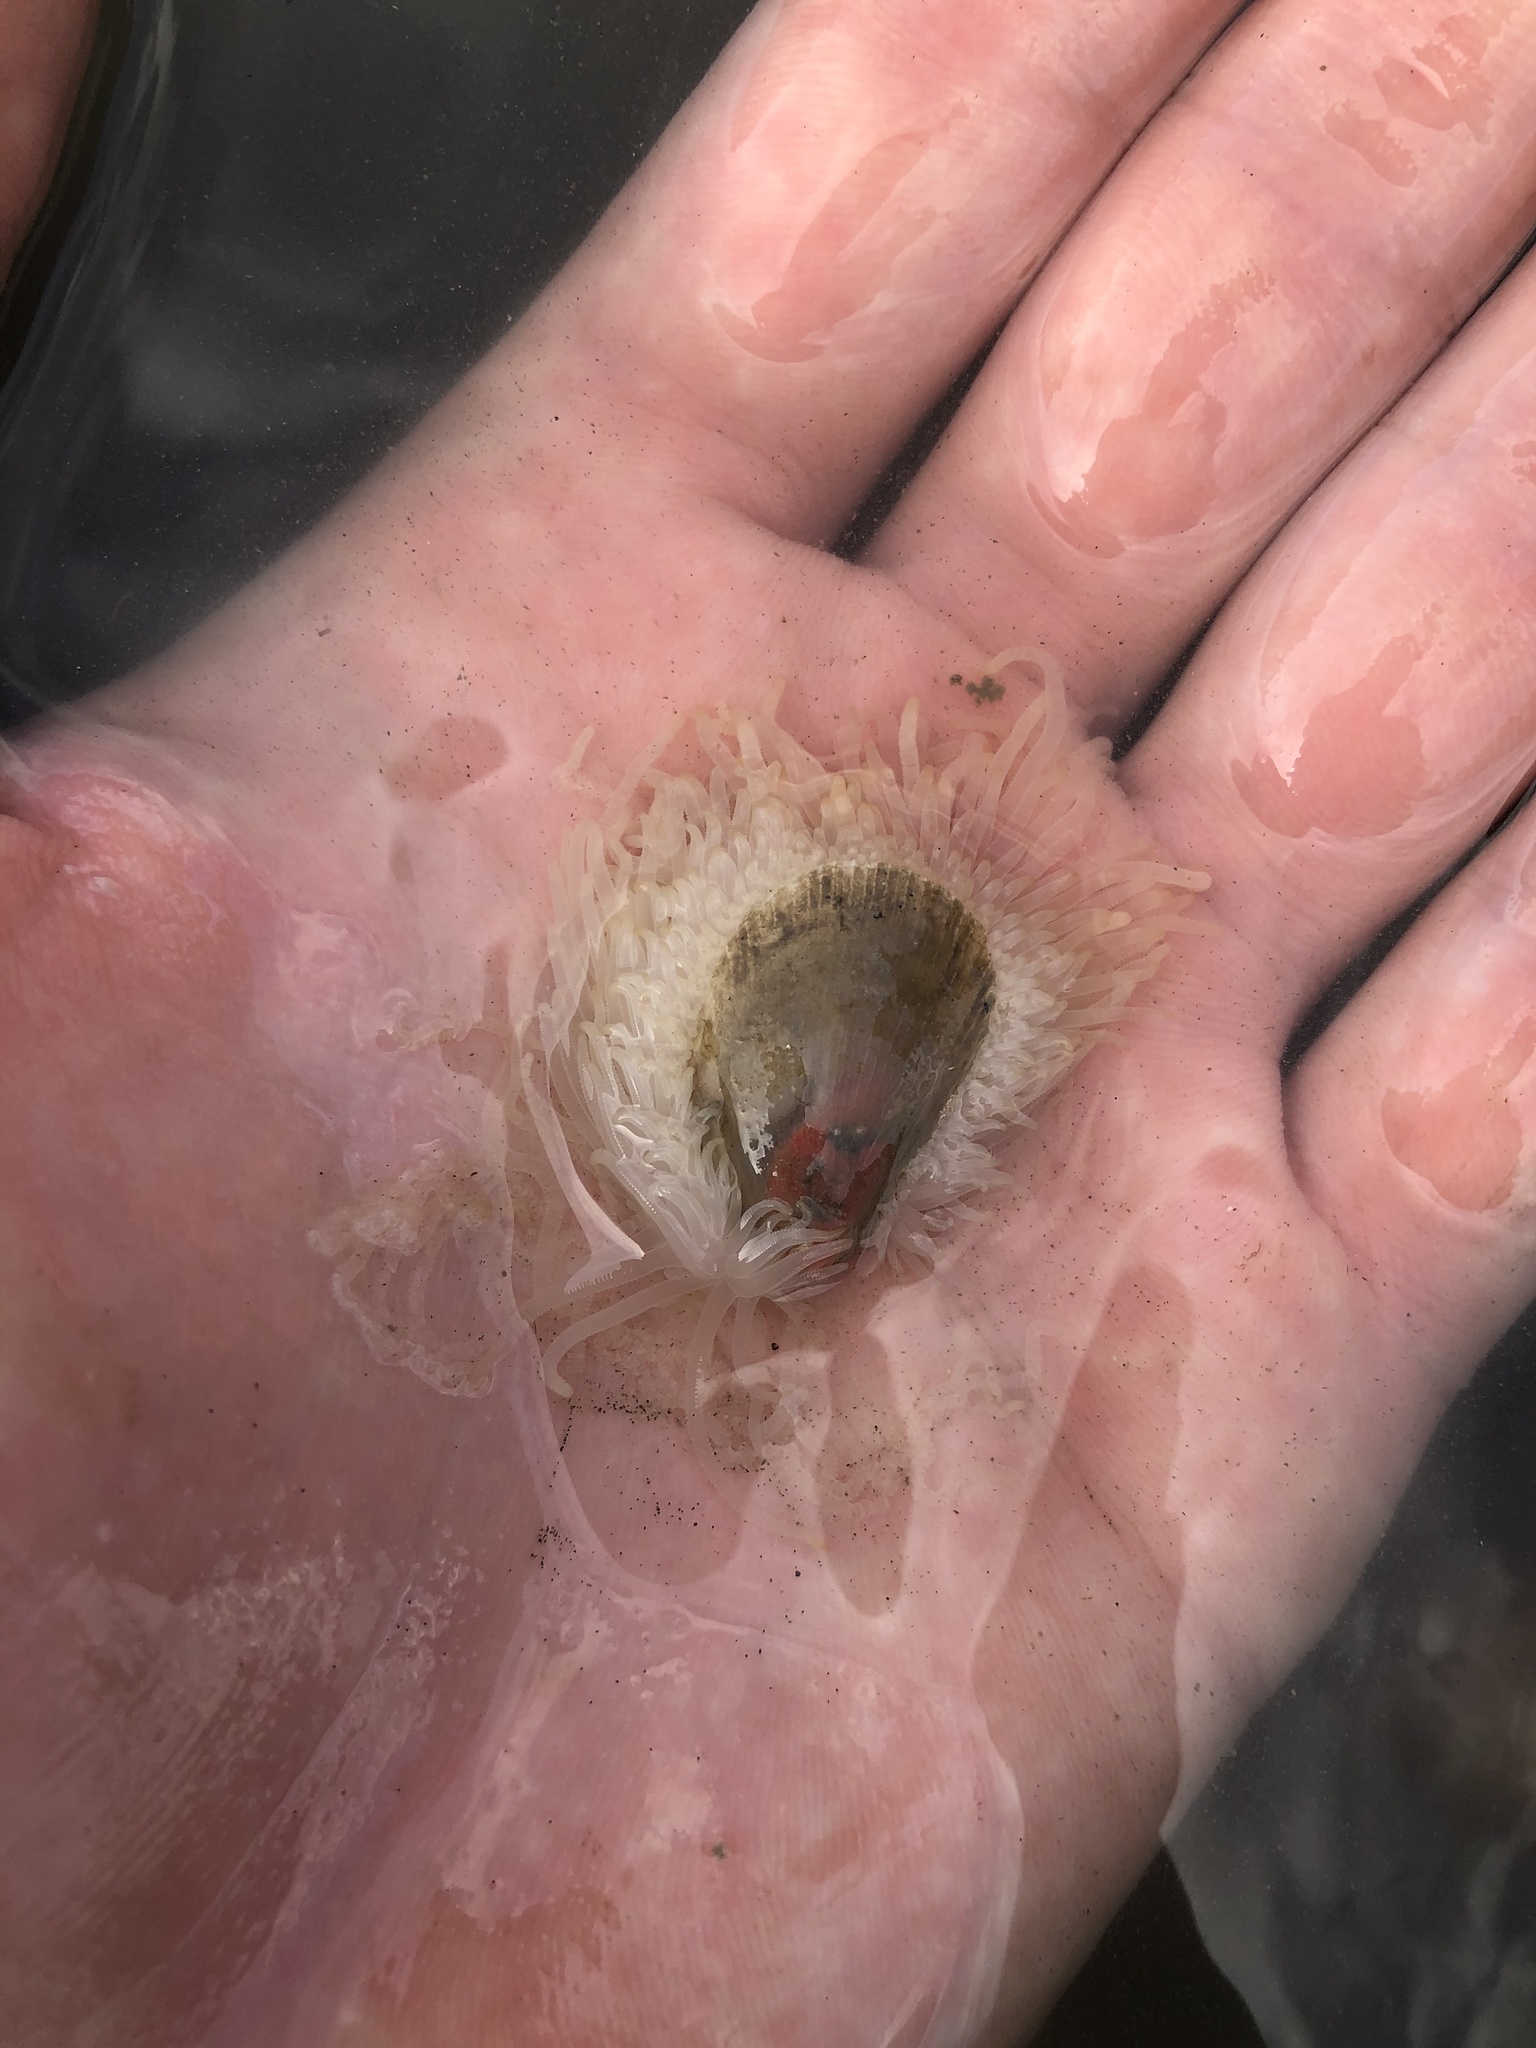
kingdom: Animalia
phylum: Mollusca
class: Bivalvia
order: Limida
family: Limidae
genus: Limaria
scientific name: Limaria pellucida
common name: Antillean fileclam
